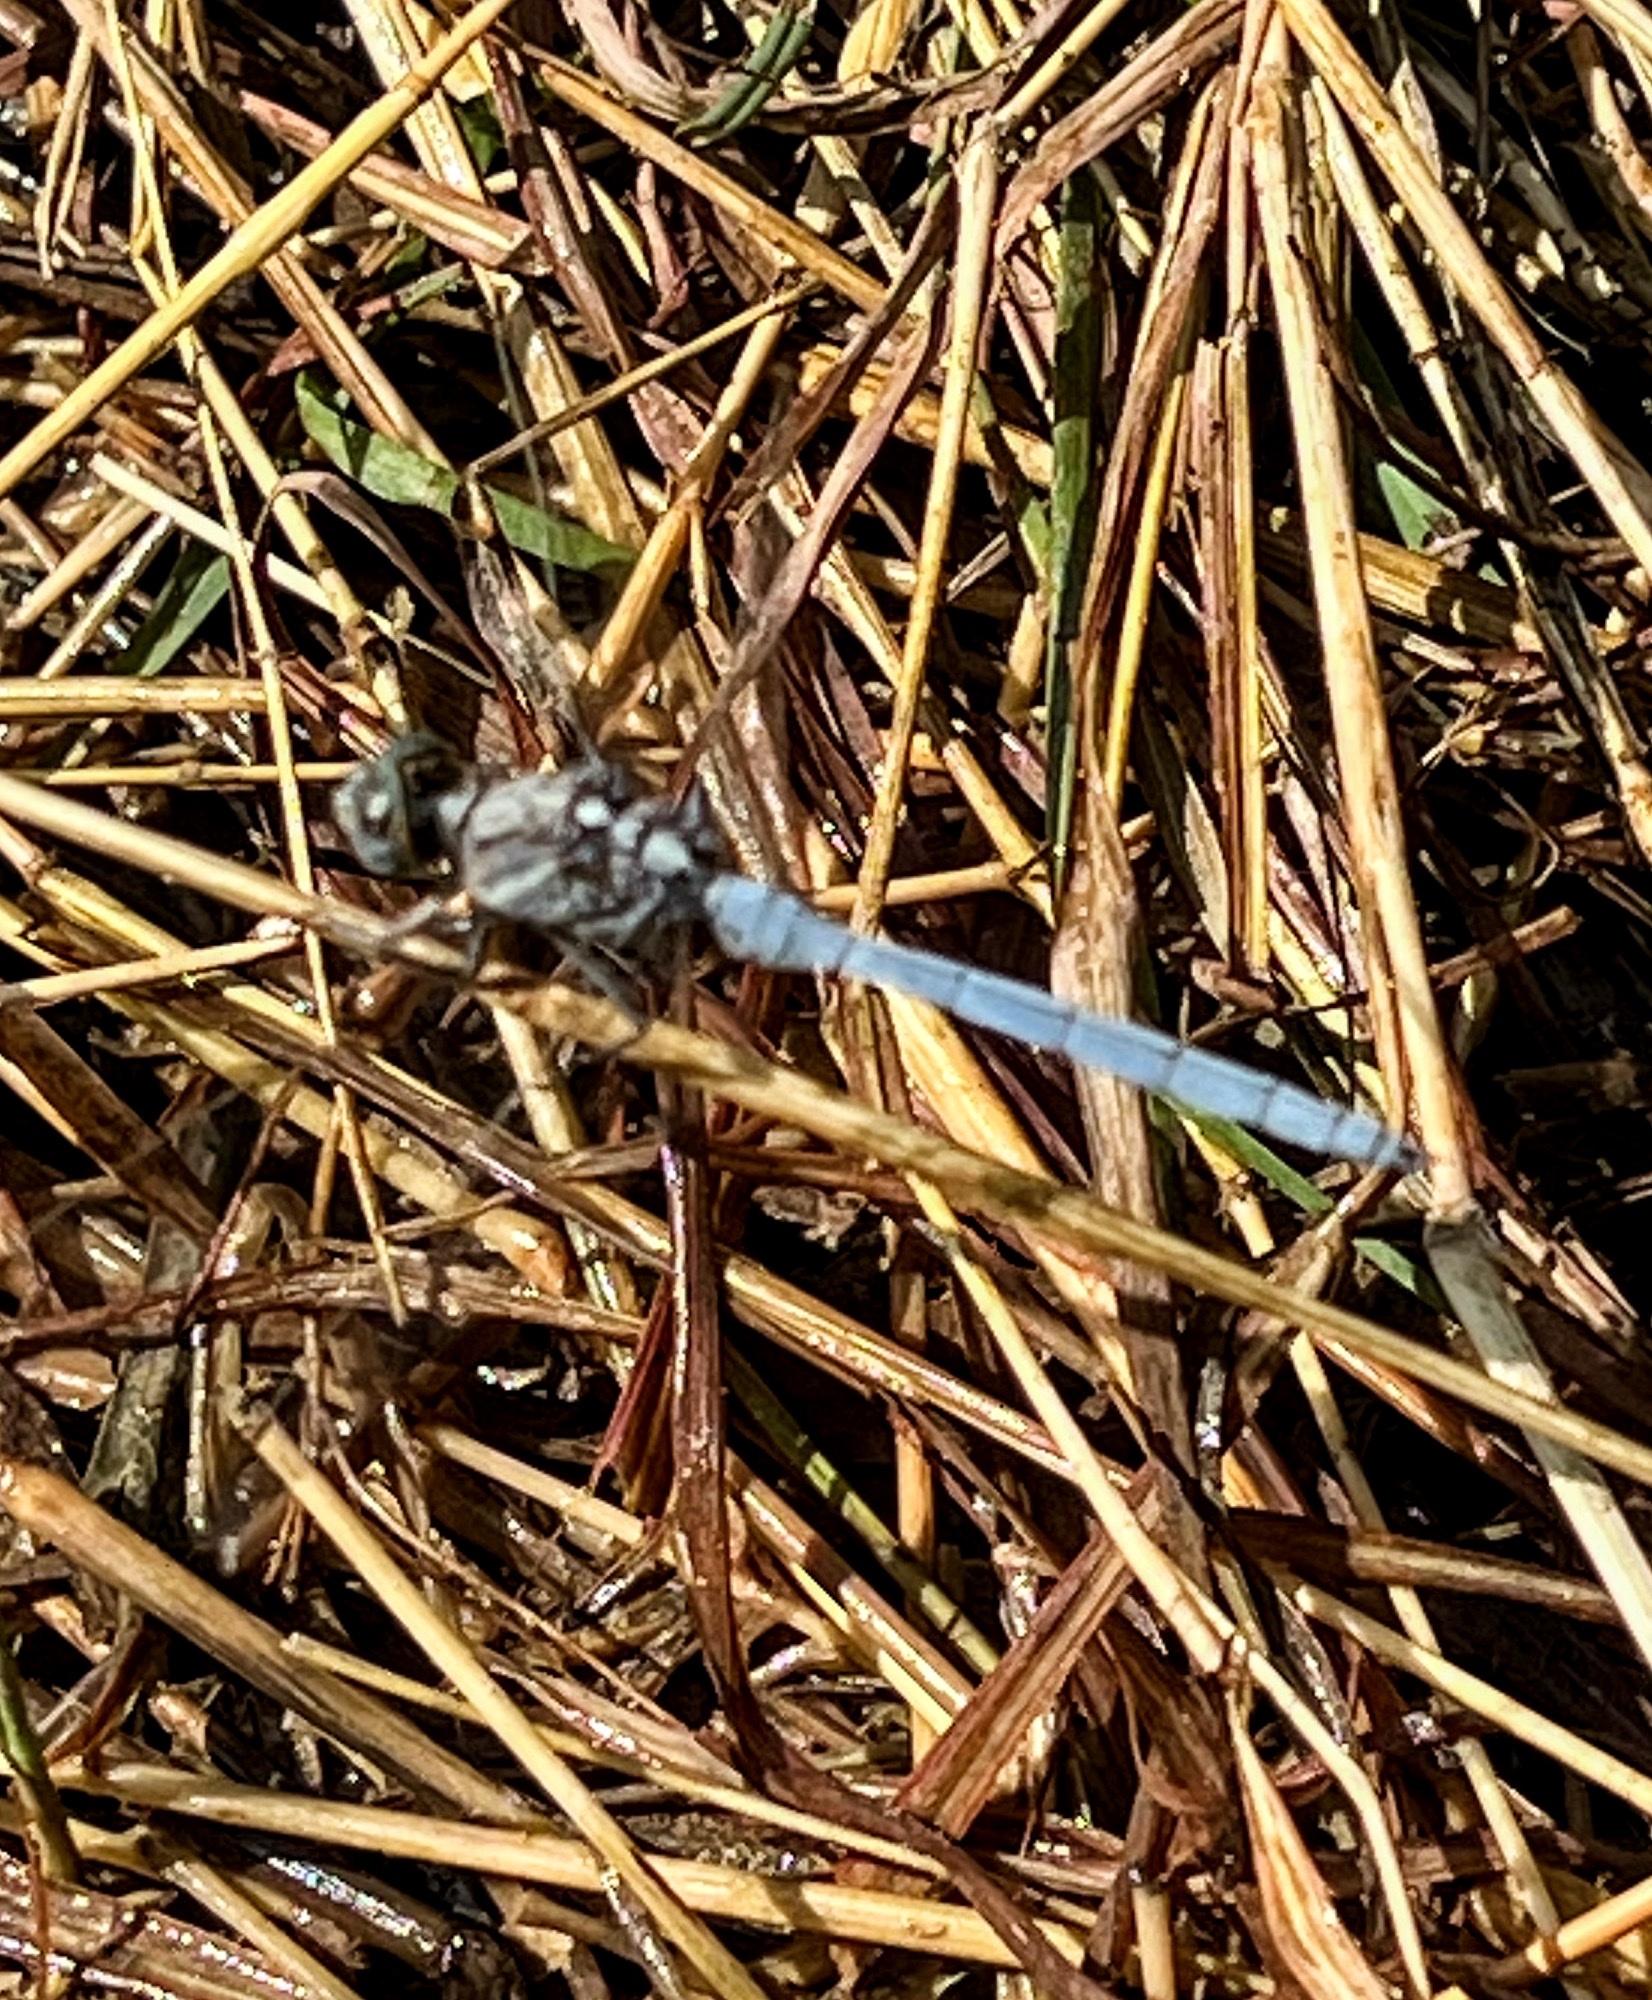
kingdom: Animalia
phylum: Arthropoda
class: Insecta
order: Odonata
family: Libellulidae
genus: Orthetrum
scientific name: Orthetrum chrysostigma
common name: Epaulet skimmer
